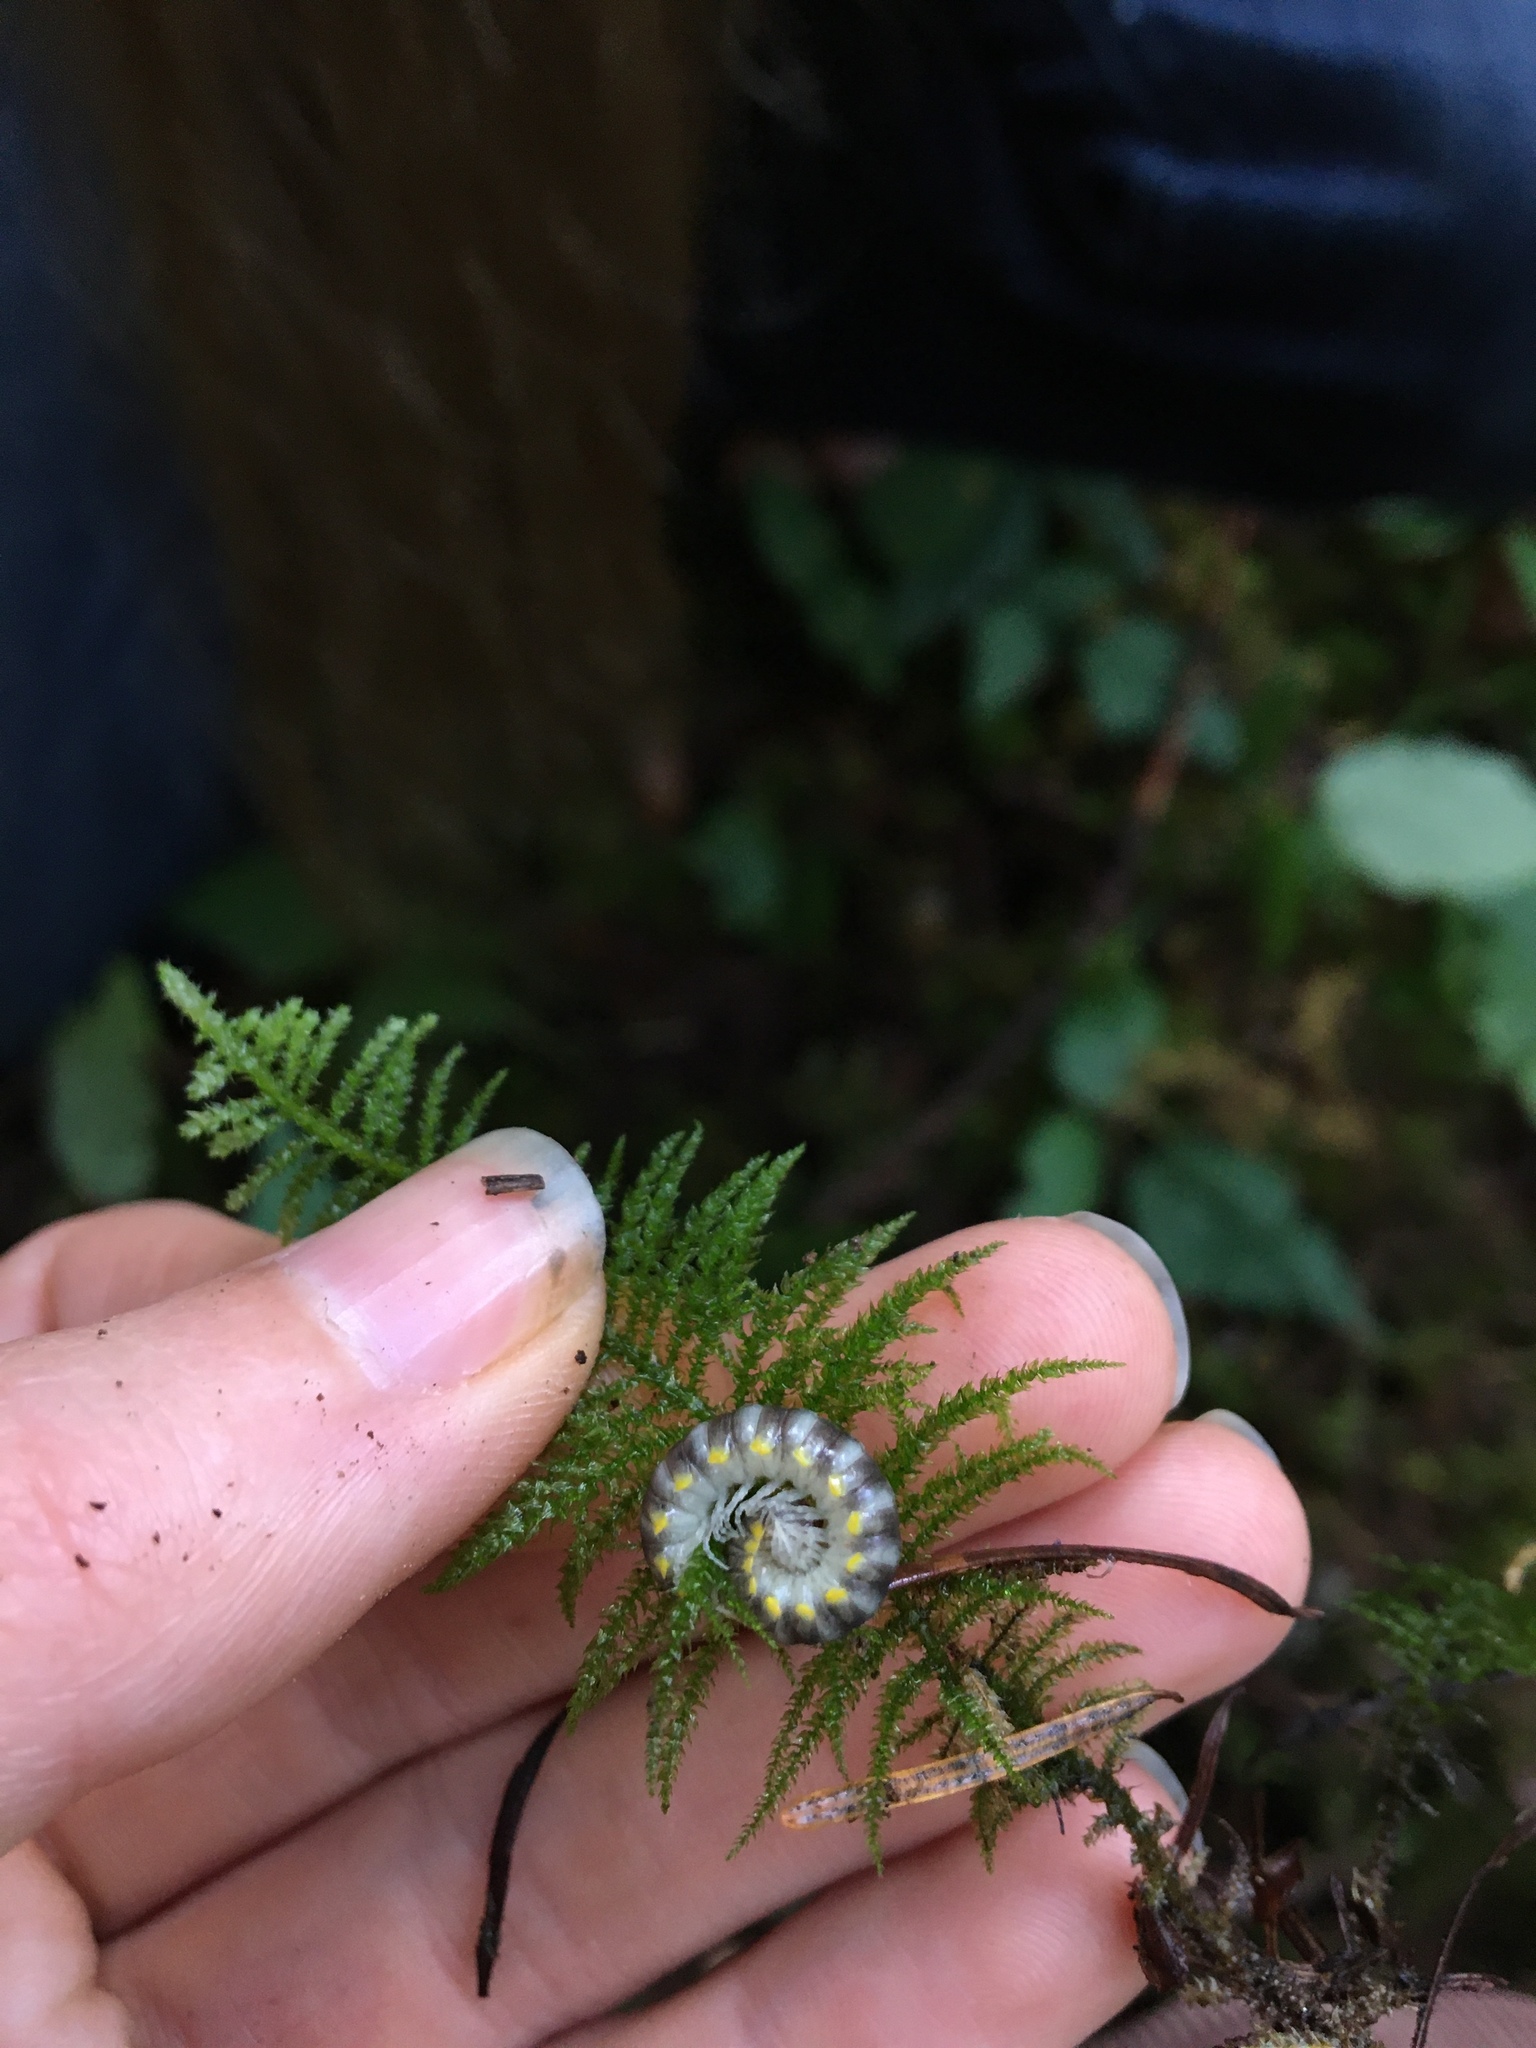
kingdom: Animalia
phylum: Arthropoda
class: Diplopoda
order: Polydesmida
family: Xystodesmidae
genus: Harpaphe
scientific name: Harpaphe haydeniana
